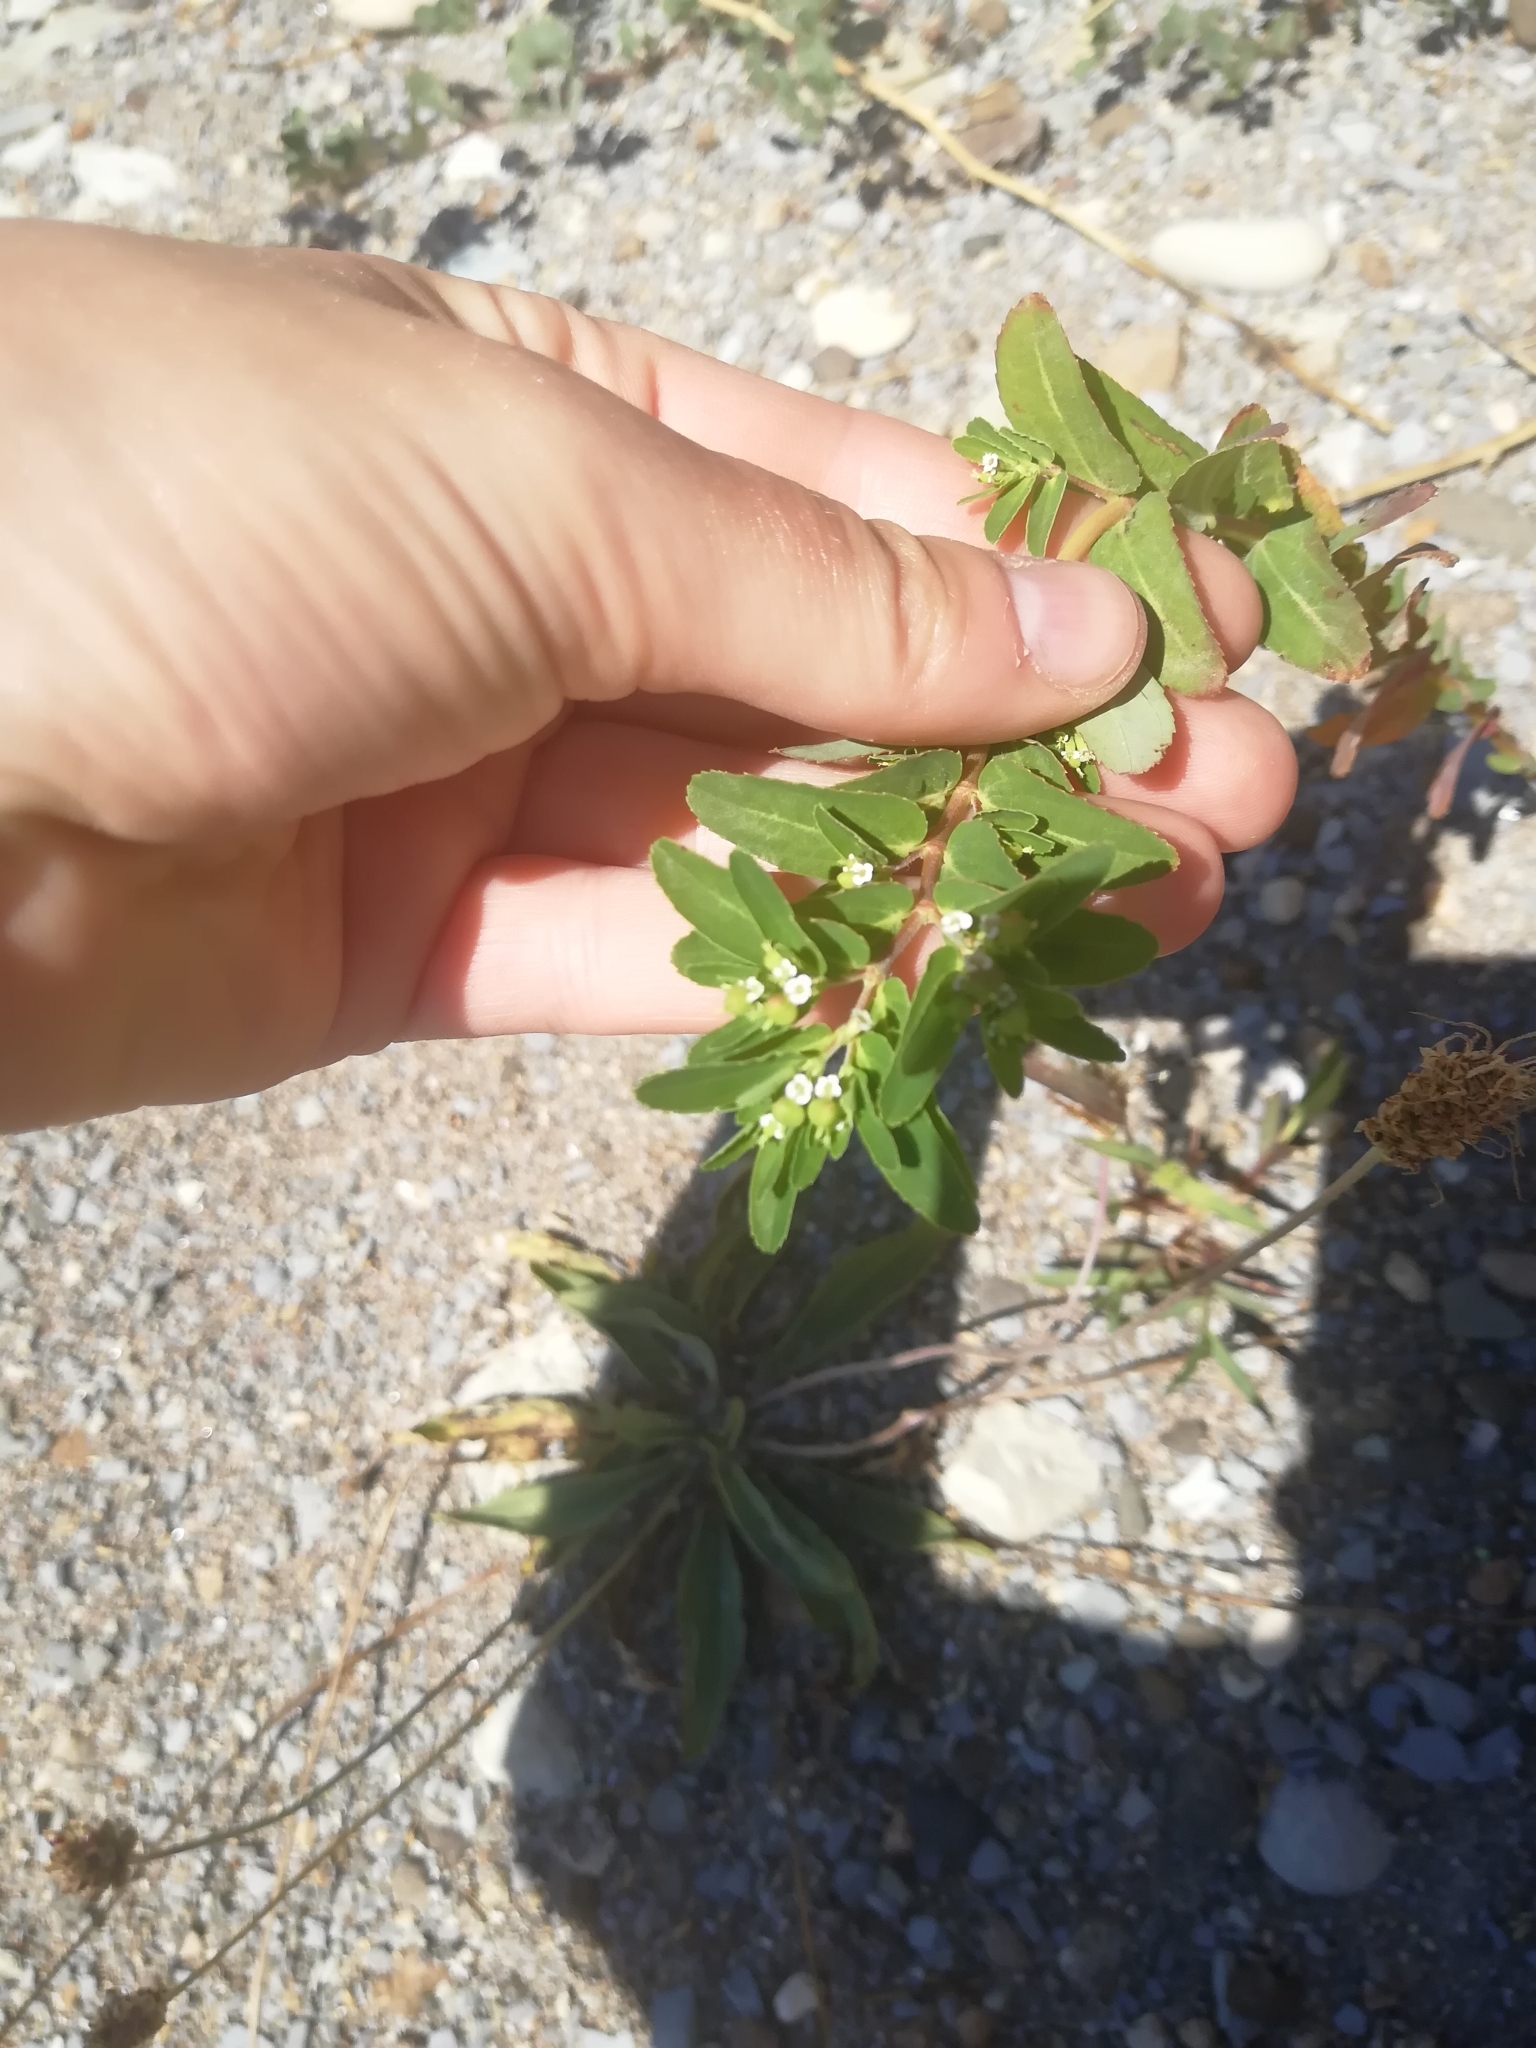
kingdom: Plantae
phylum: Tracheophyta
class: Magnoliopsida
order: Malpighiales
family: Euphorbiaceae
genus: Euphorbia
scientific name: Euphorbia nutans
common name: Eyebane
